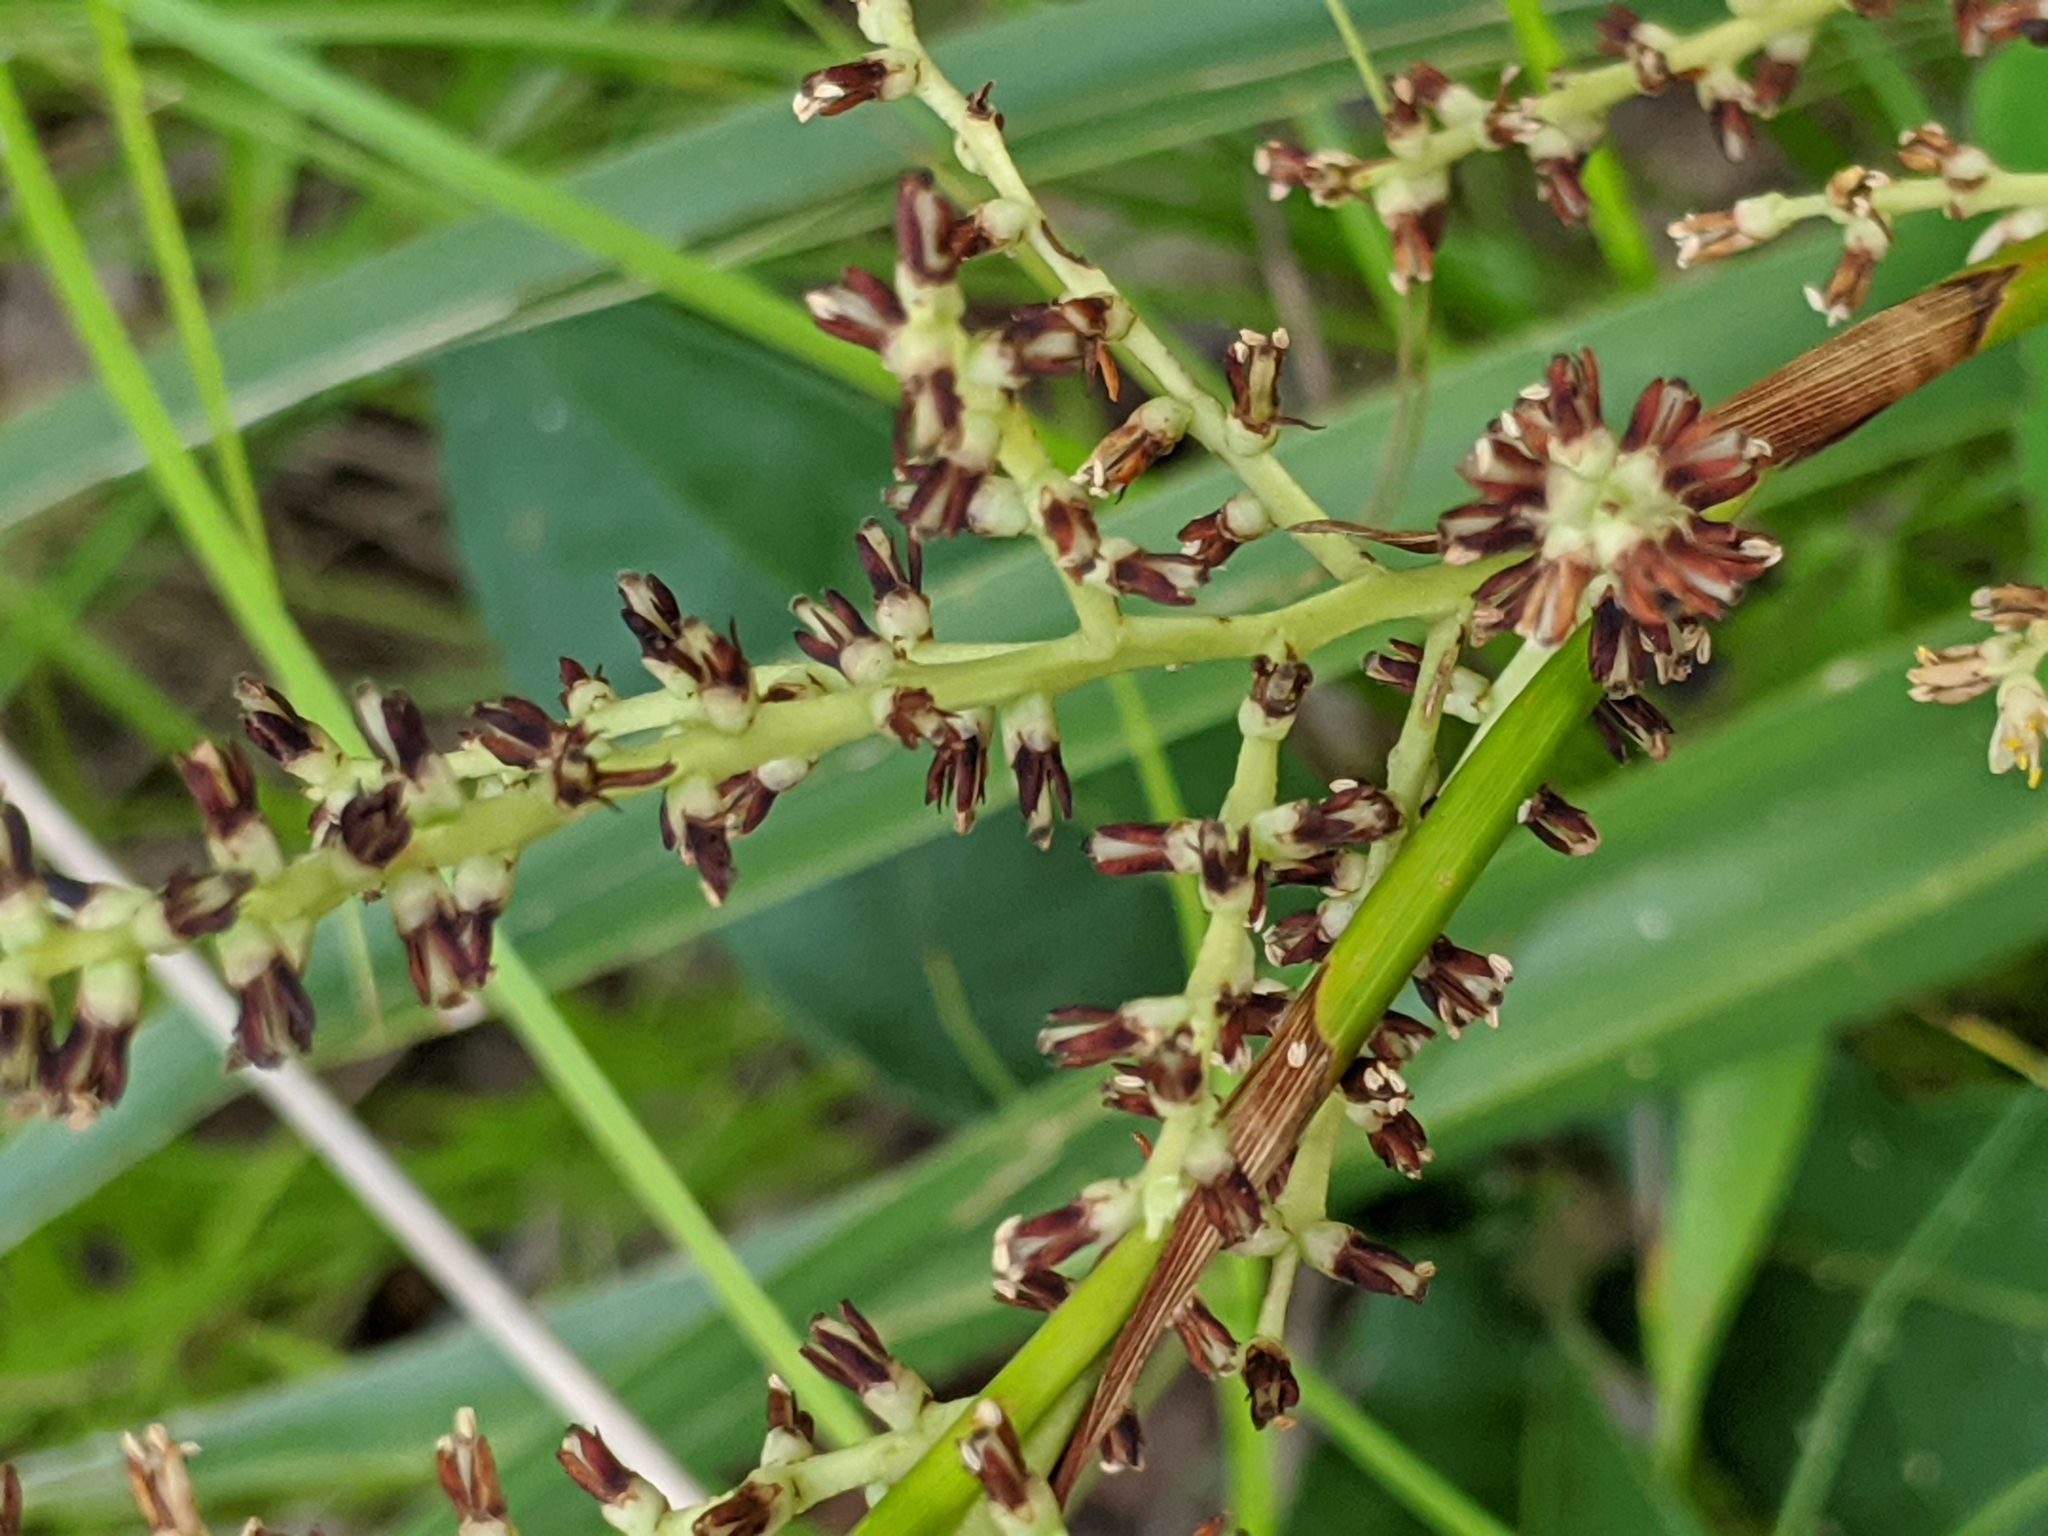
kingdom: Plantae
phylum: Tracheophyta
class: Liliopsida
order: Arecales
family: Arecaceae
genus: Sabal
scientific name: Sabal minor
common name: Dwarf palmetto
